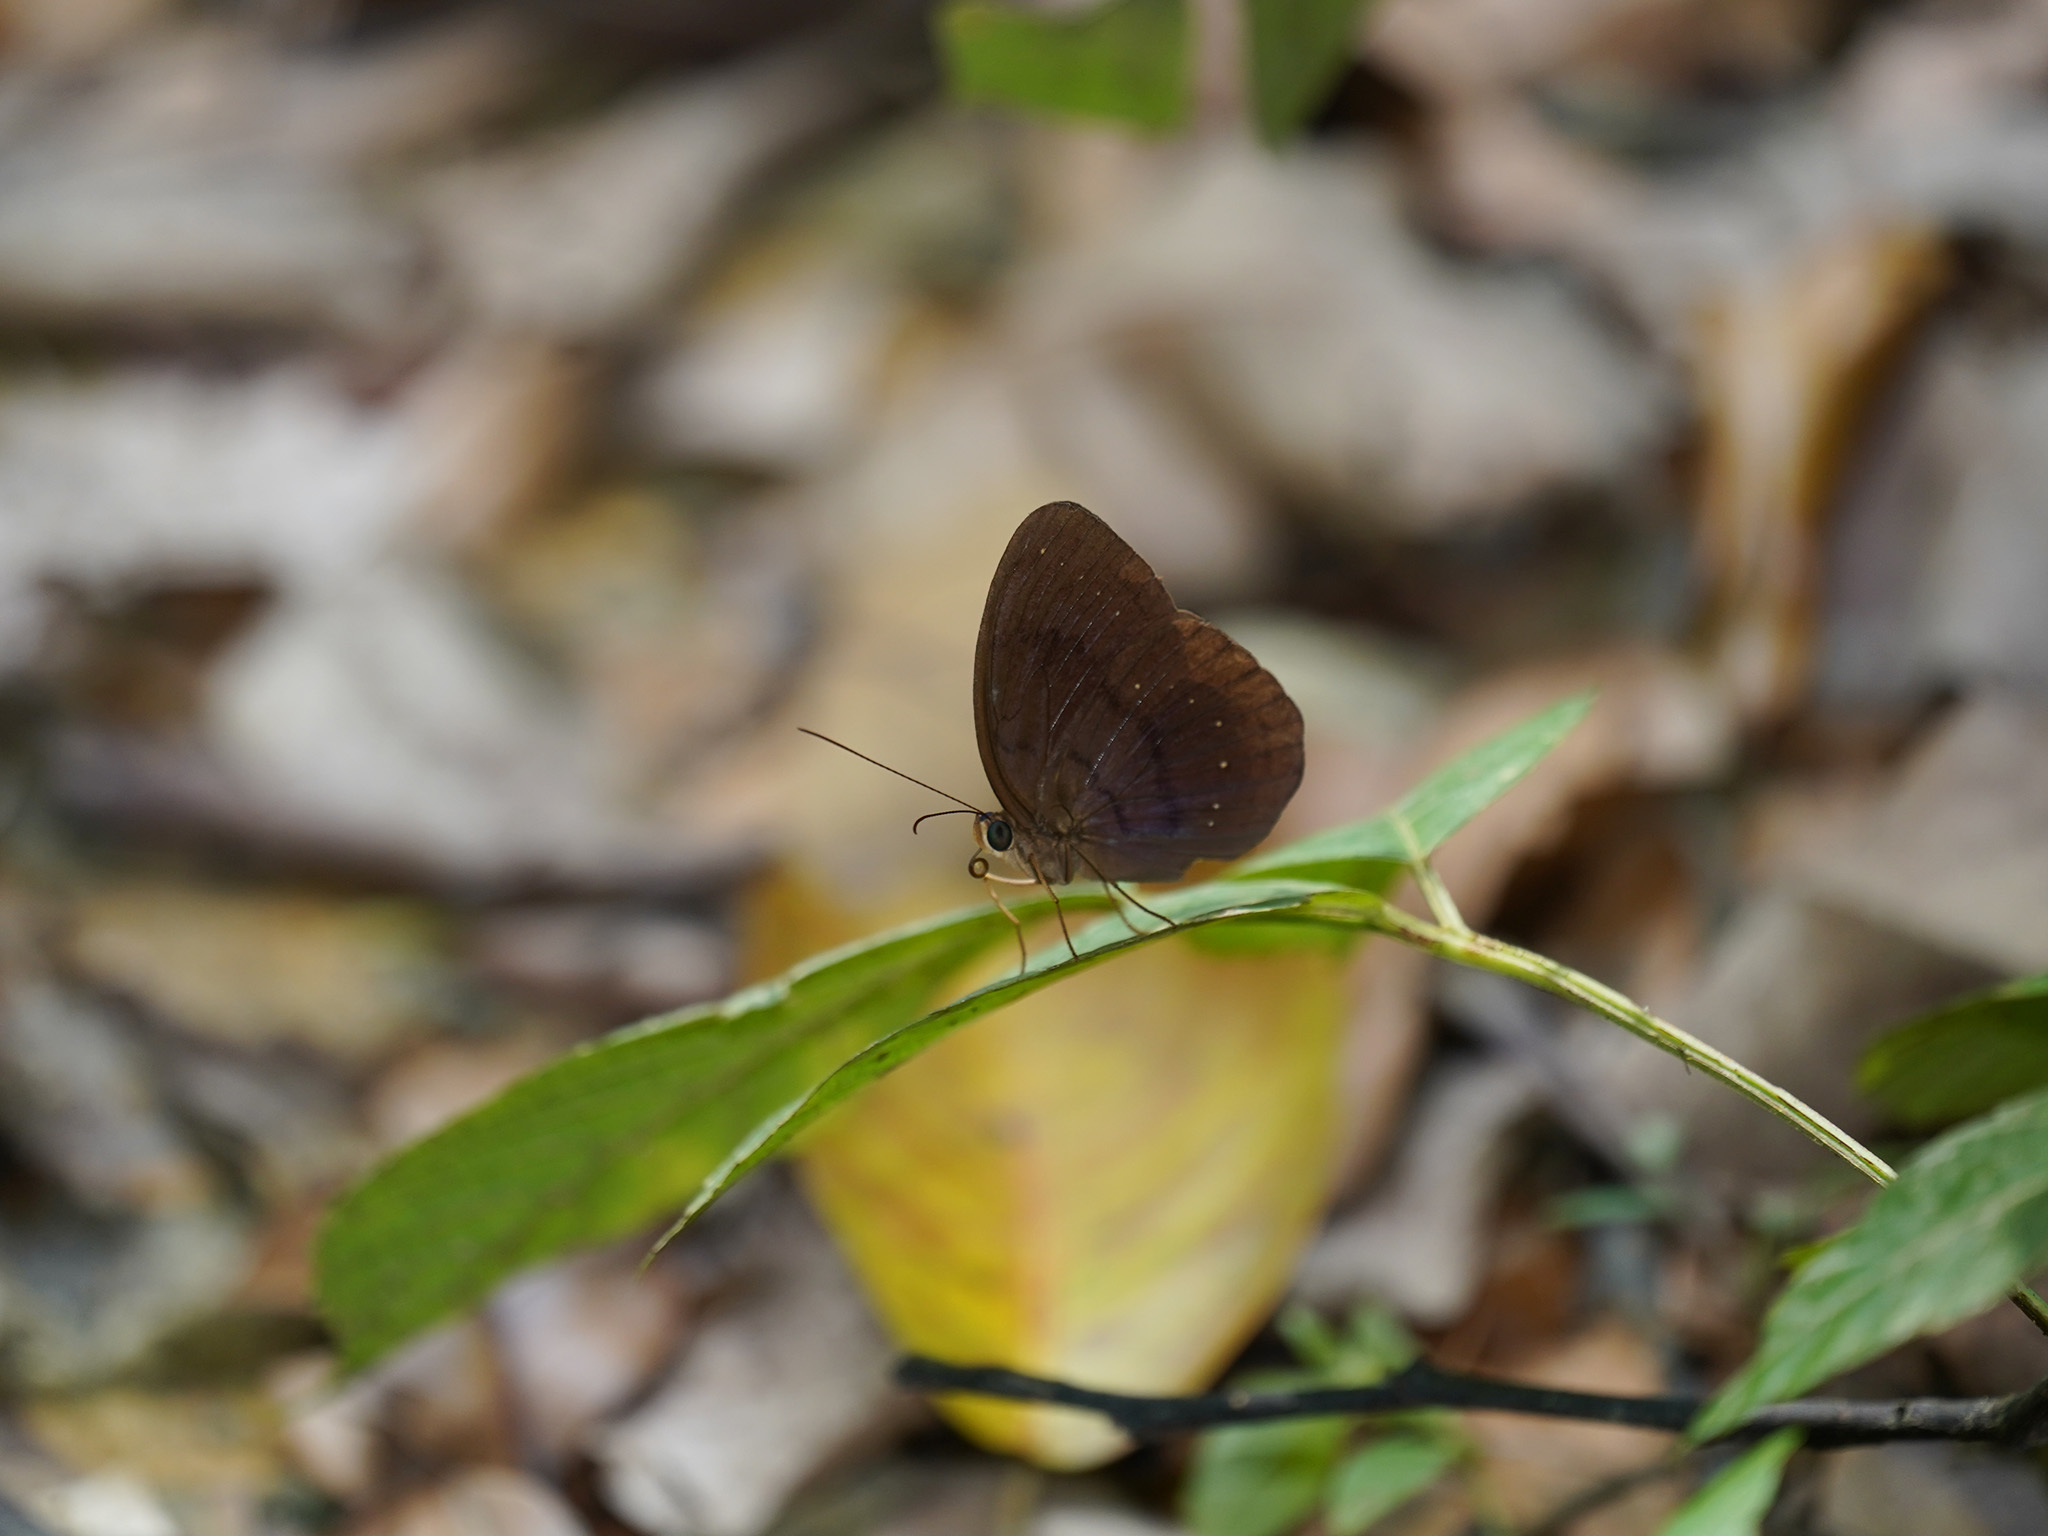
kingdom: Animalia
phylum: Arthropoda
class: Insecta
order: Lepidoptera
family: Nymphalidae
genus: Faunis
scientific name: Faunis canens
